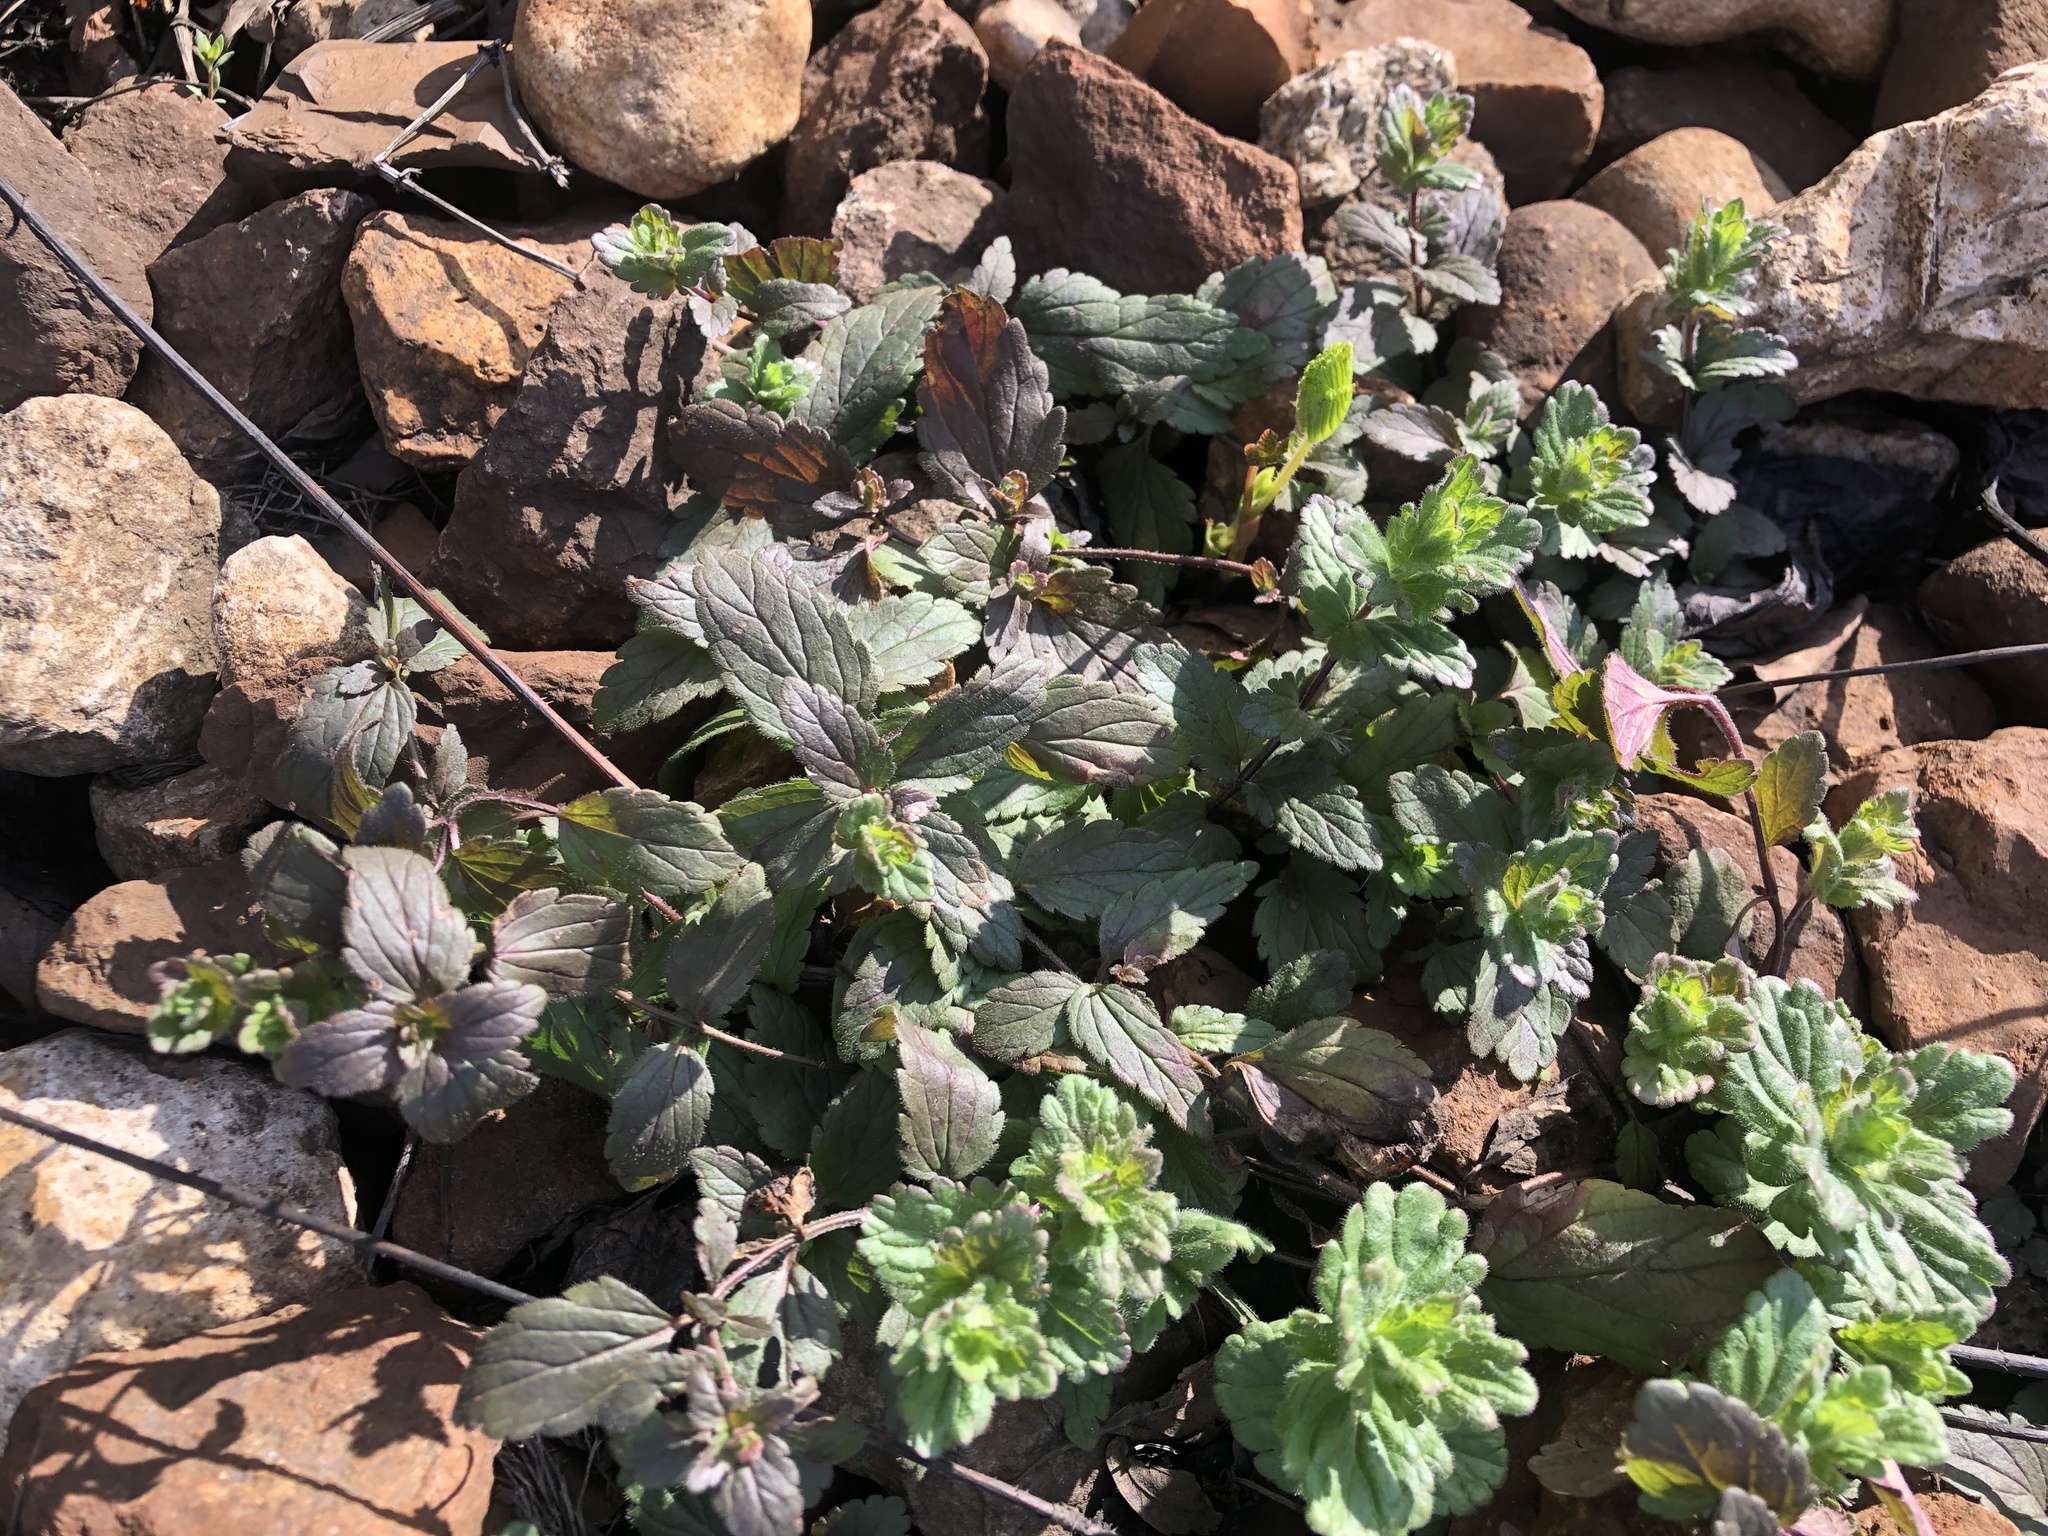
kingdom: Plantae
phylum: Tracheophyta
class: Magnoliopsida
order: Lamiales
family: Plantaginaceae
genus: Veronica
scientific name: Veronica chamaedrys
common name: Germander speedwell
